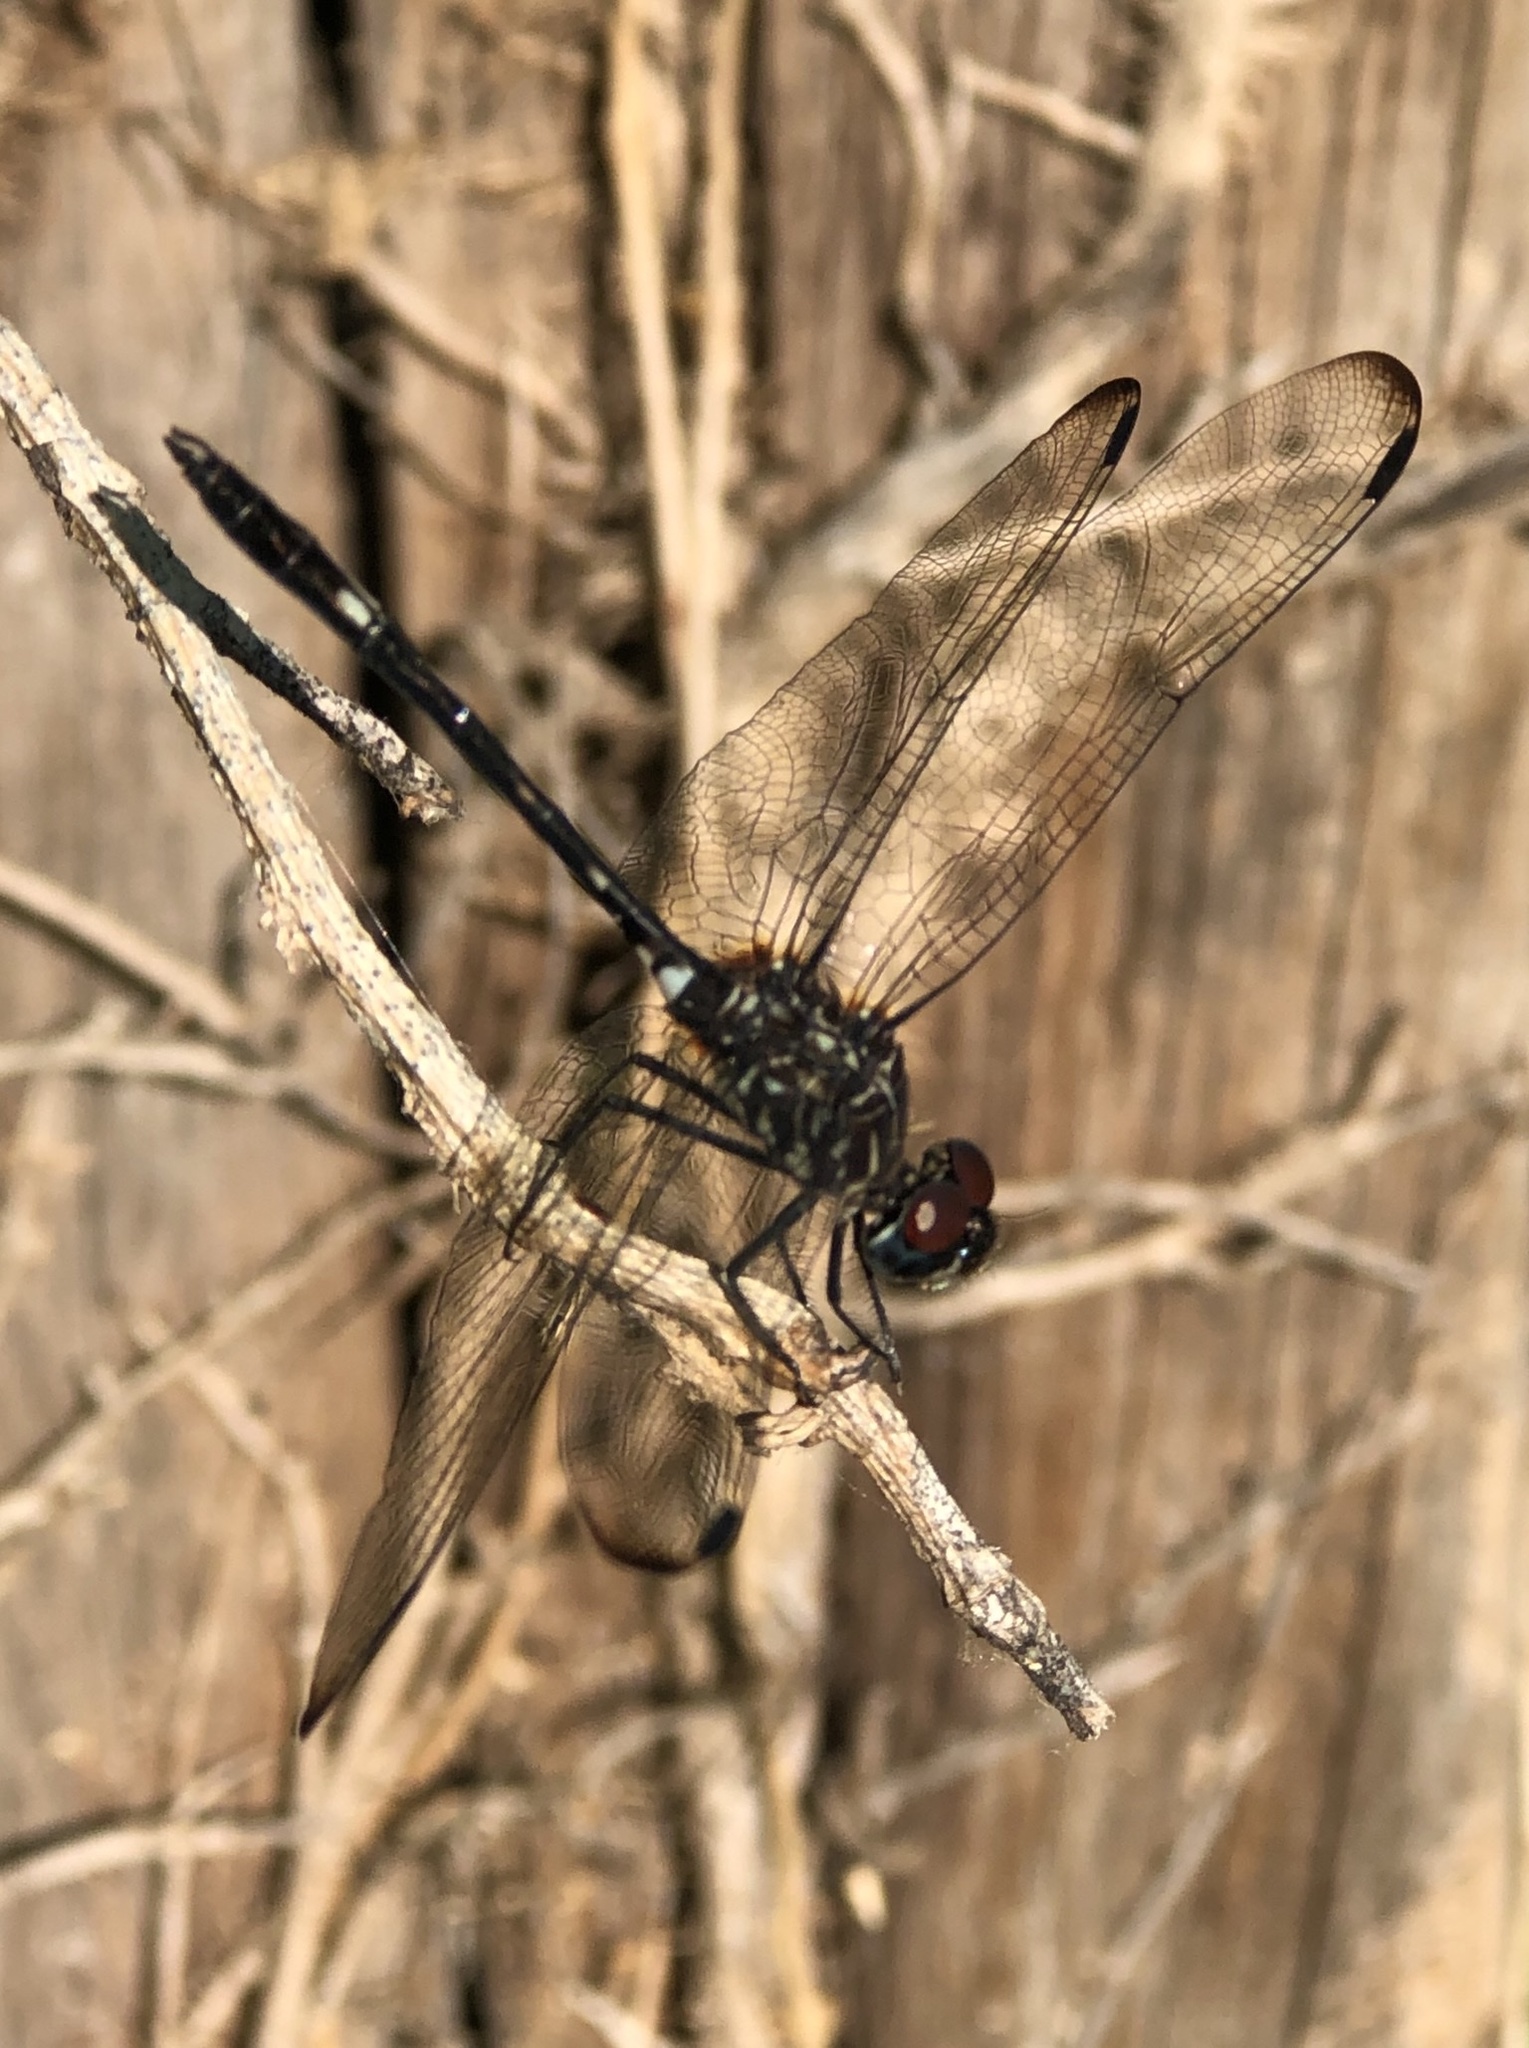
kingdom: Animalia
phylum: Arthropoda
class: Insecta
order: Odonata
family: Libellulidae
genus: Dythemis
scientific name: Dythemis velox
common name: Swift setwing
